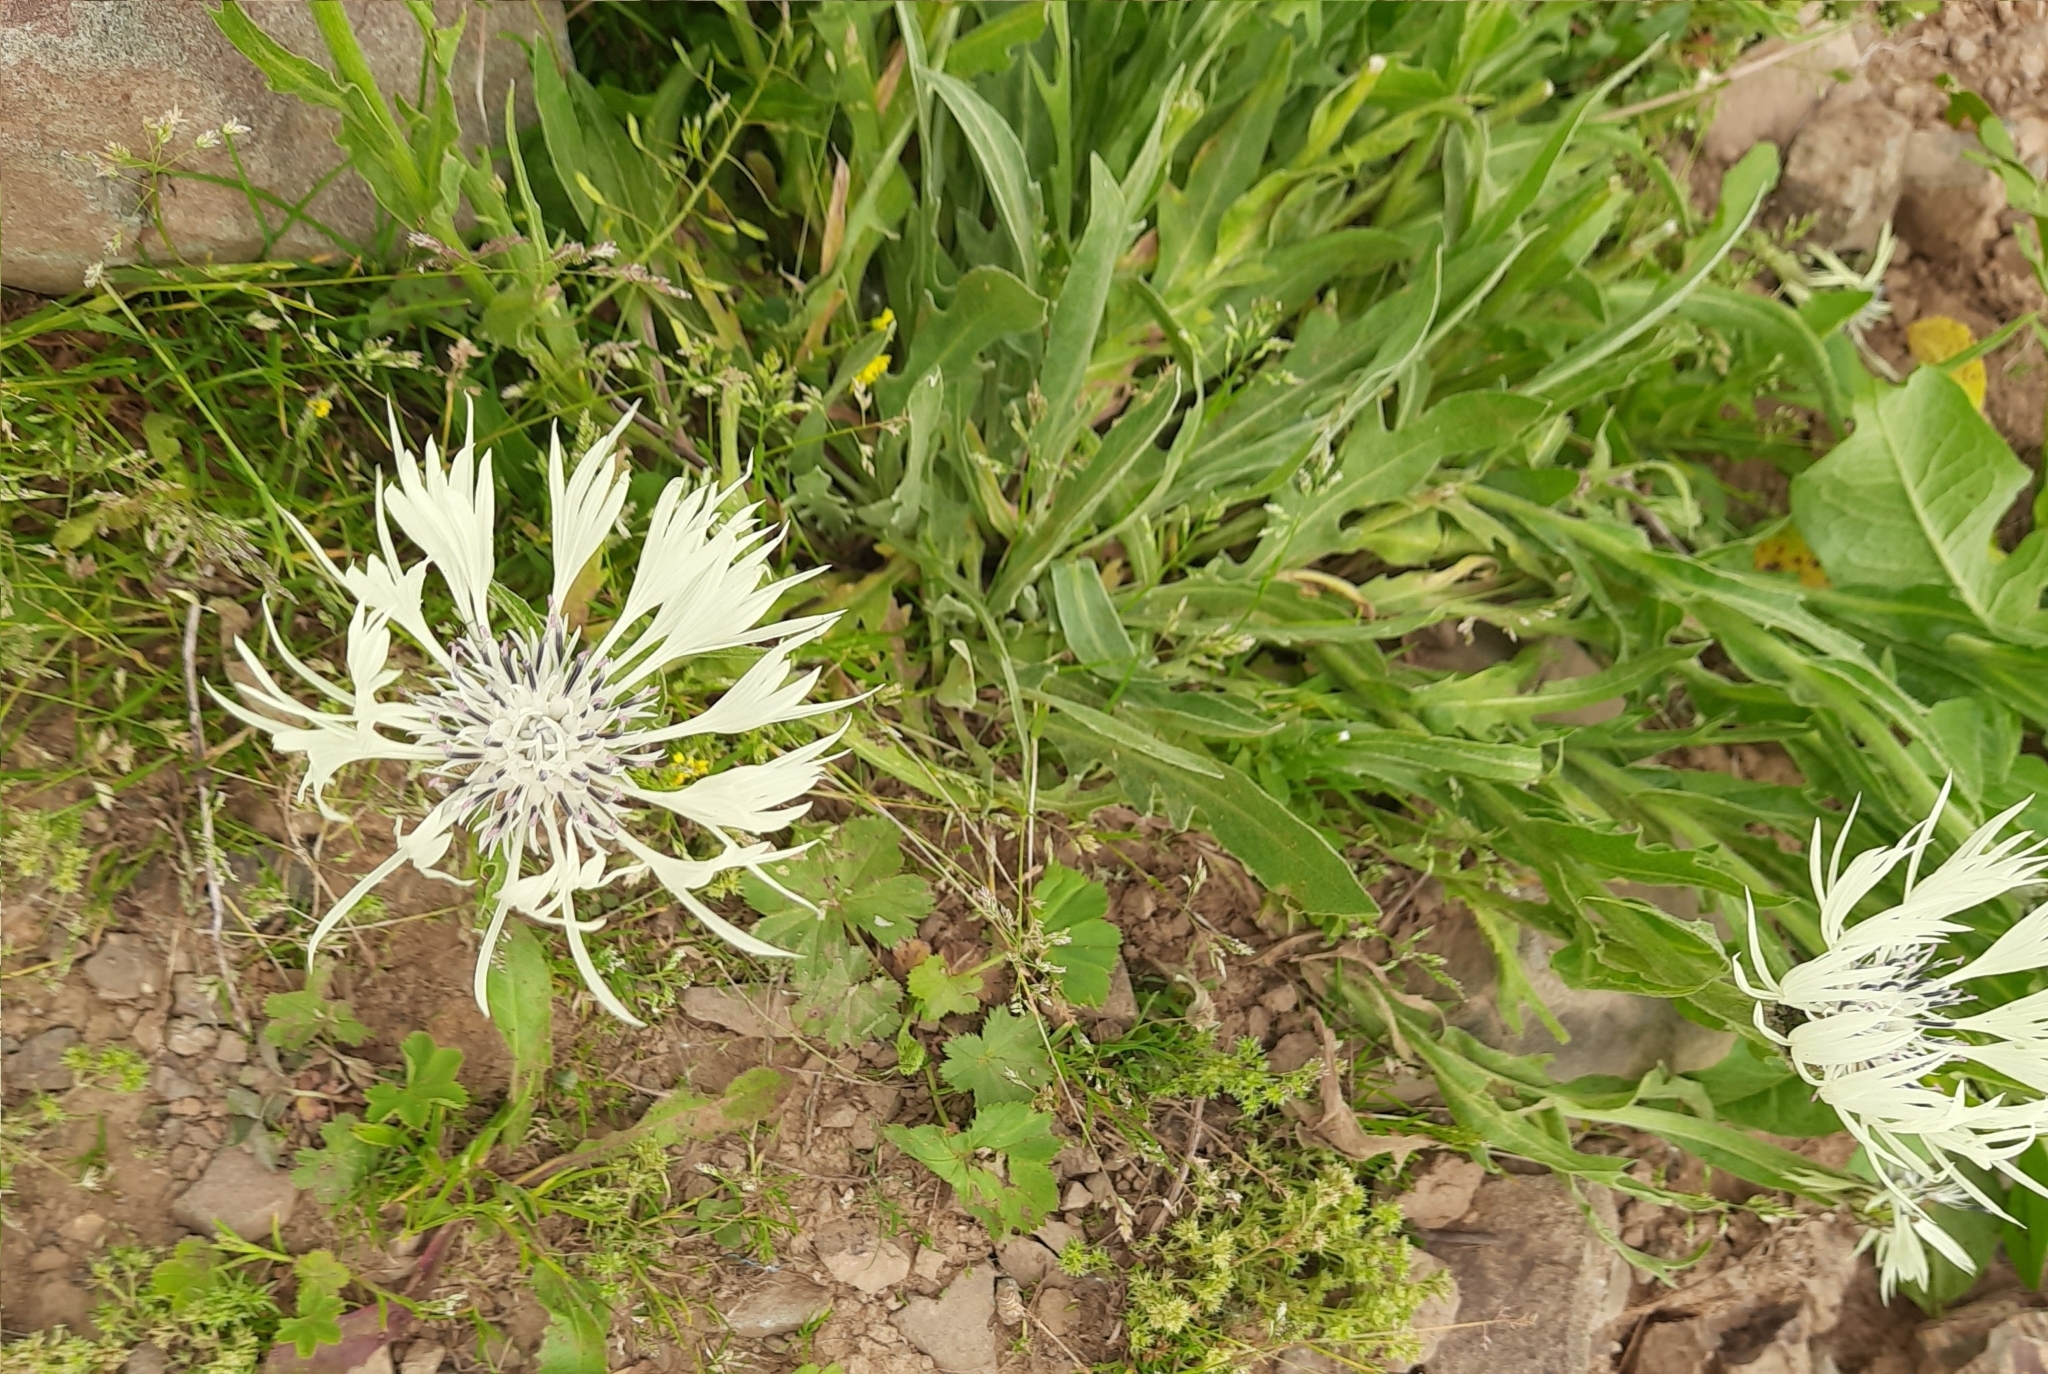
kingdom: Plantae
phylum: Tracheophyta
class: Magnoliopsida
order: Asterales
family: Asteraceae
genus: Centaurea
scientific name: Centaurea cheiranthifolia
